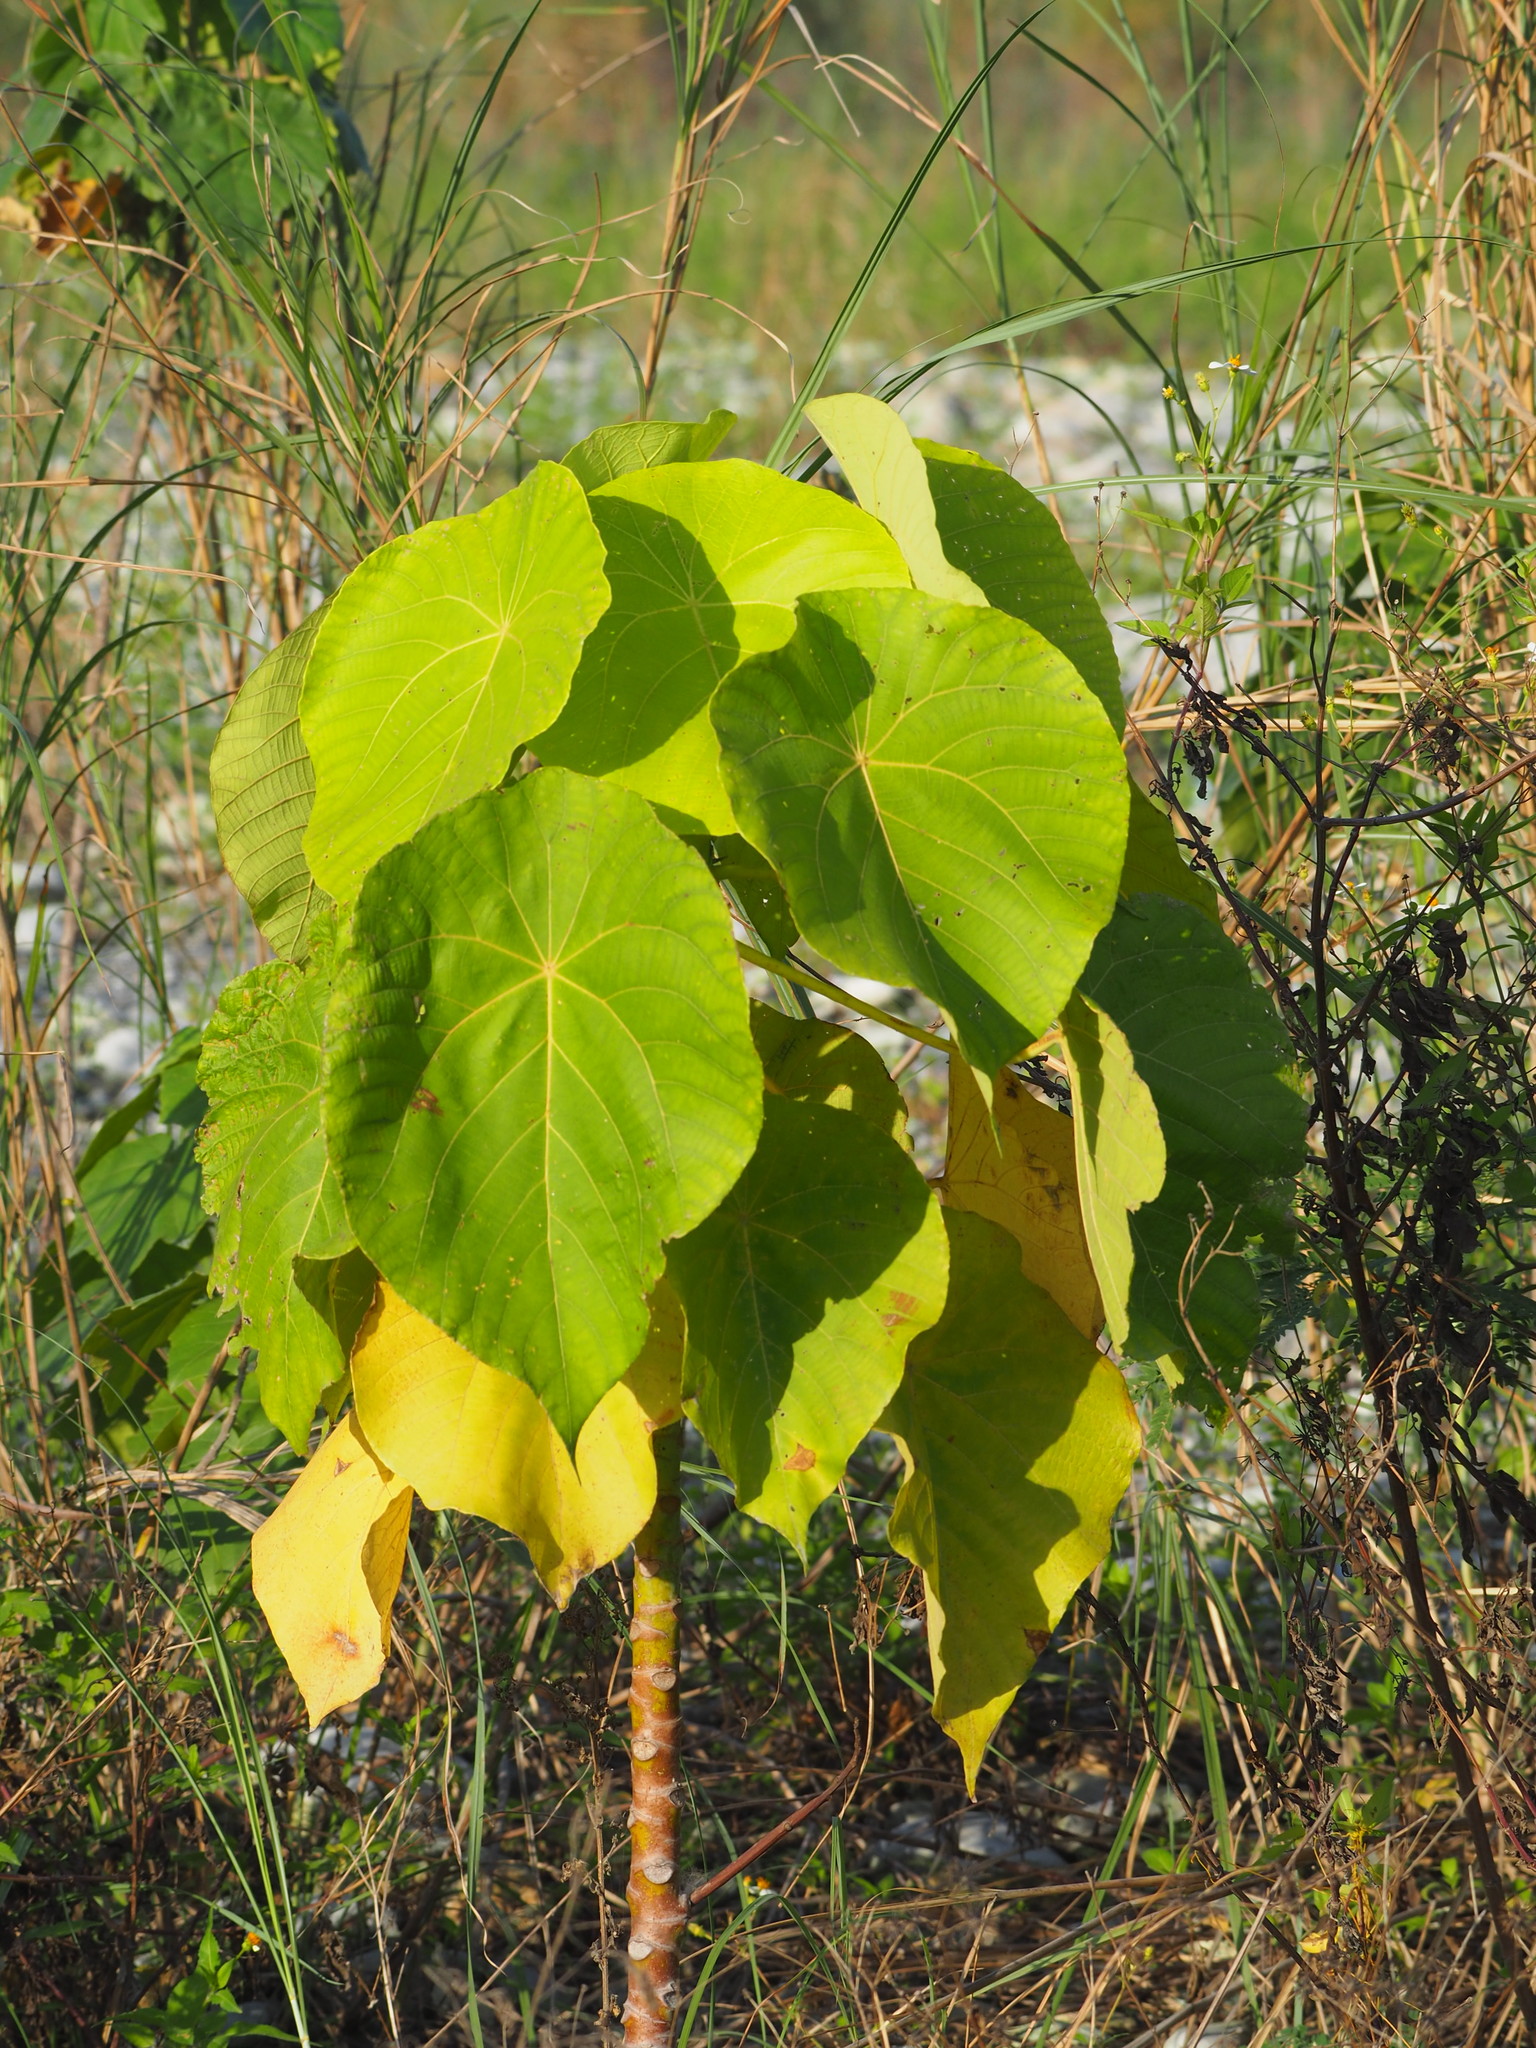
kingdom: Plantae
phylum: Tracheophyta
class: Magnoliopsida
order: Malpighiales
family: Euphorbiaceae
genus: Macaranga
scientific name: Macaranga tanarius
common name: Parasol leaf tree
